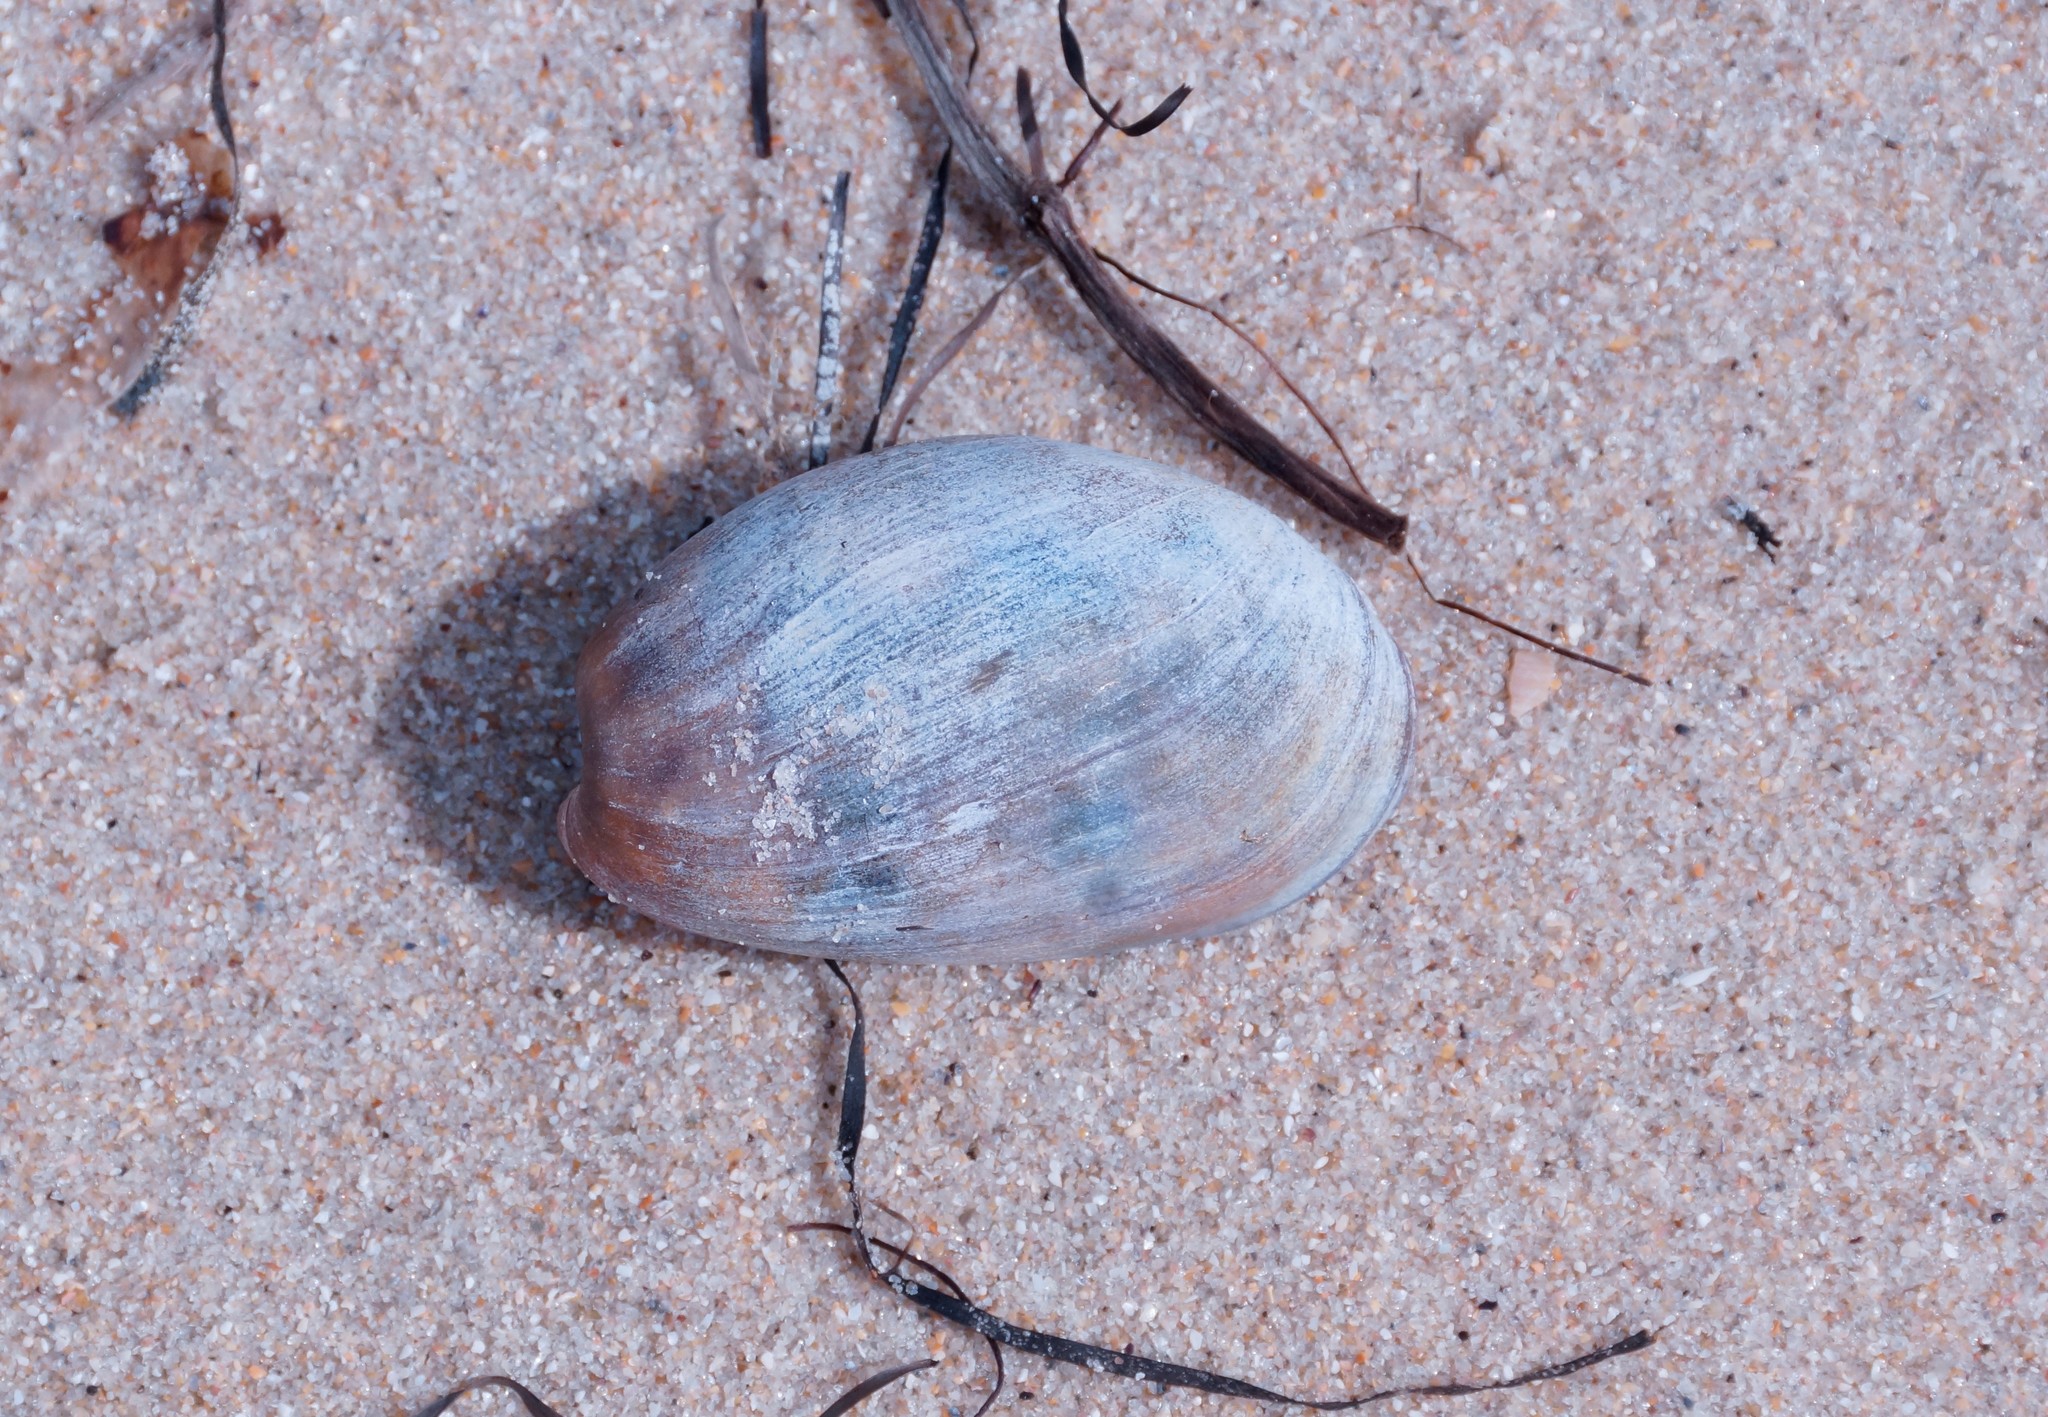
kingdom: Animalia
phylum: Mollusca
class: Gastropoda
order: Cephalaspidea
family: Bullidae
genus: Bulla
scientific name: Bulla quoyii
